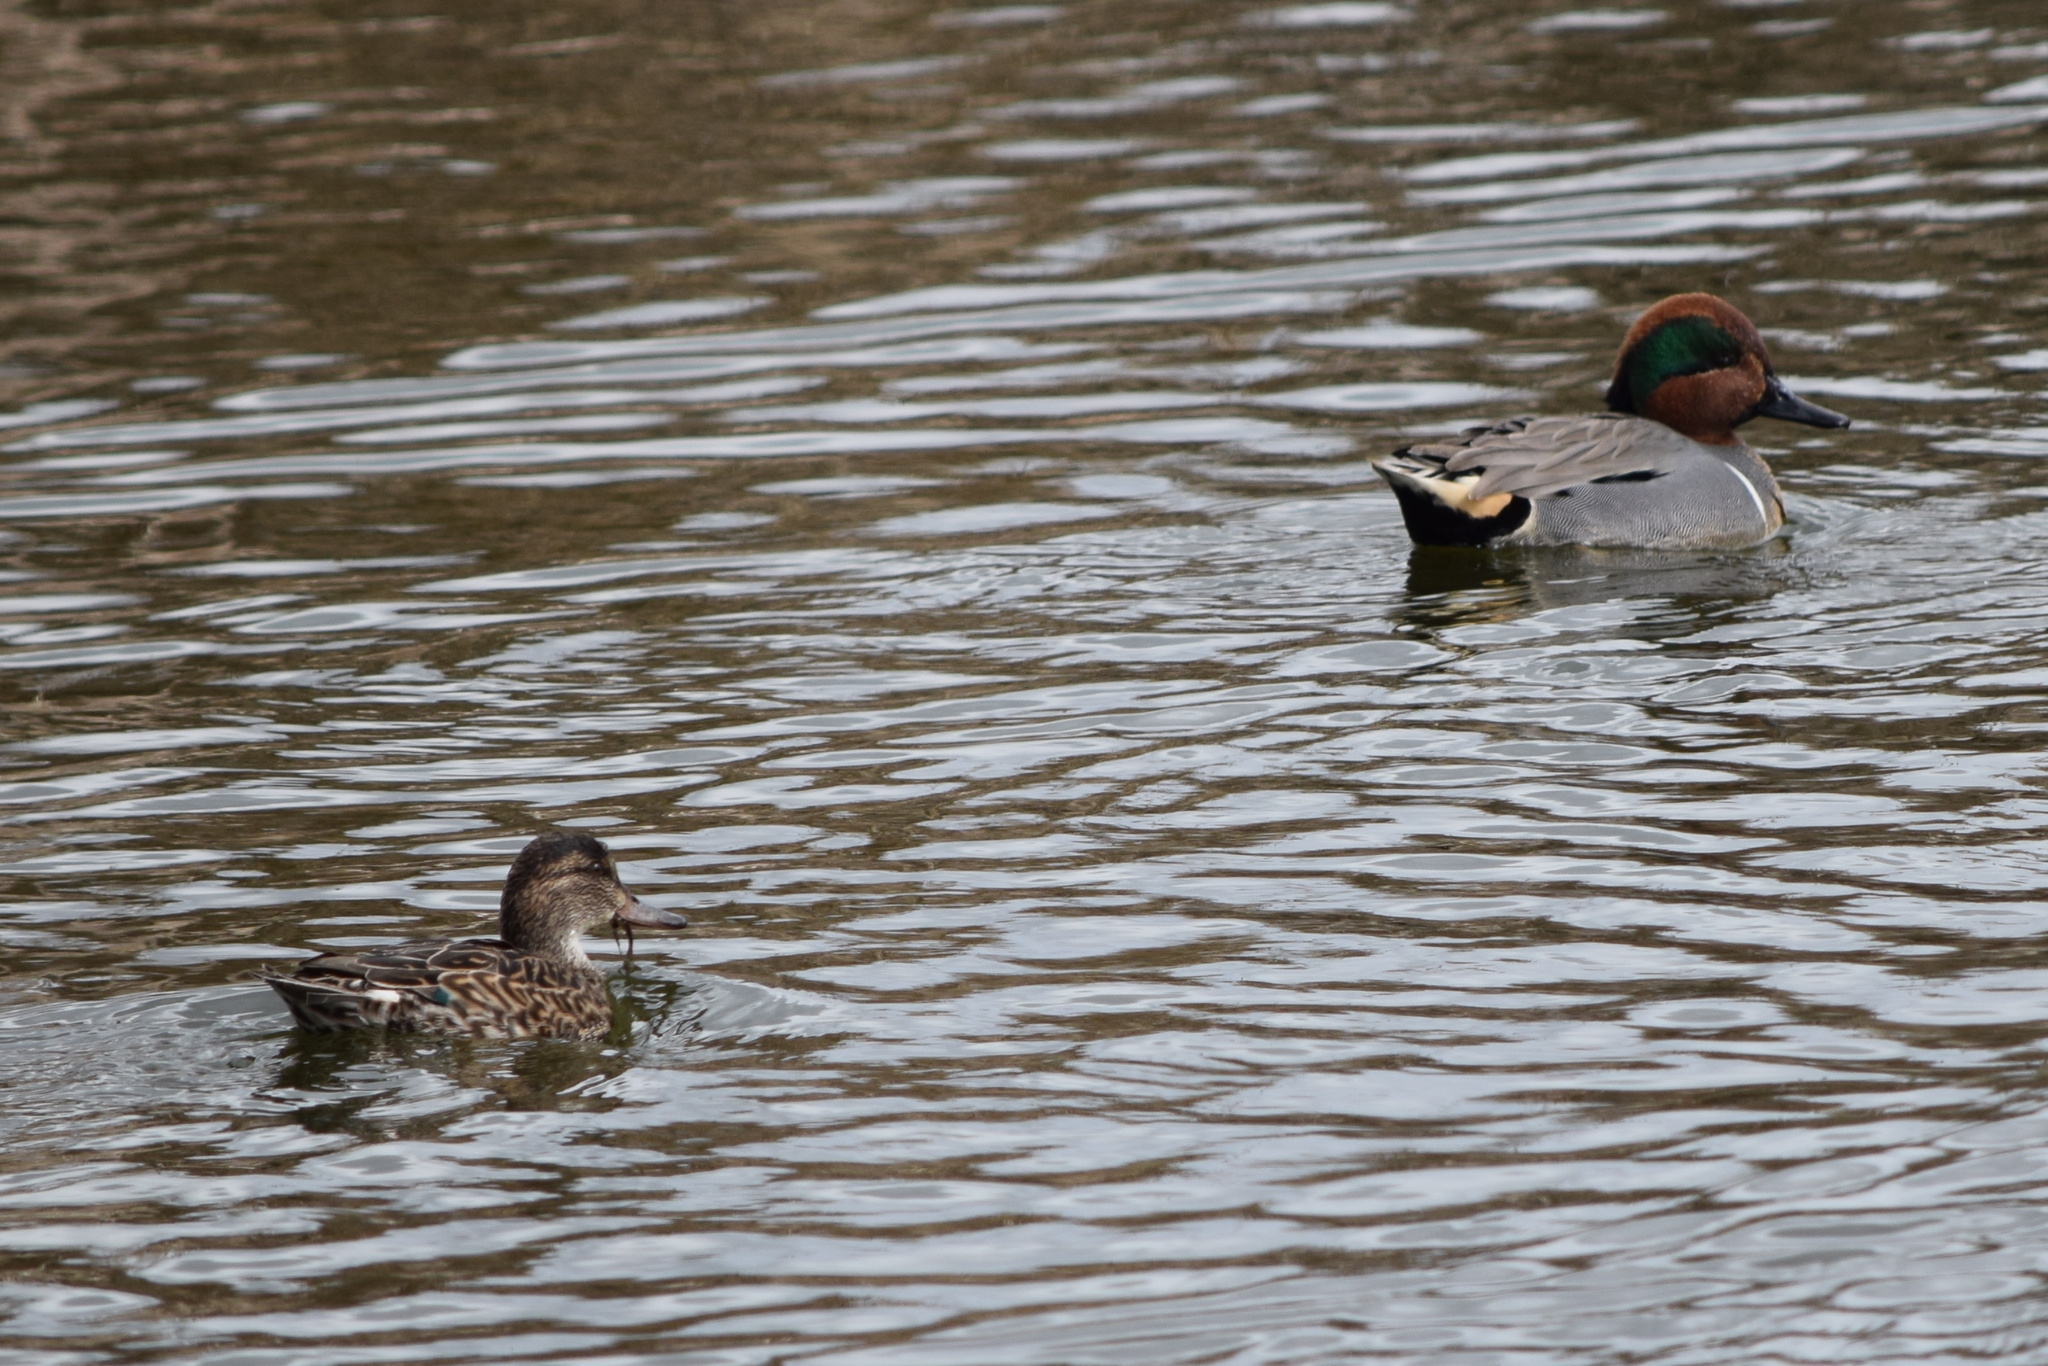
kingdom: Animalia
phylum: Chordata
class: Aves
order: Anseriformes
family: Anatidae
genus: Anas
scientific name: Anas crecca
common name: Eurasian teal
